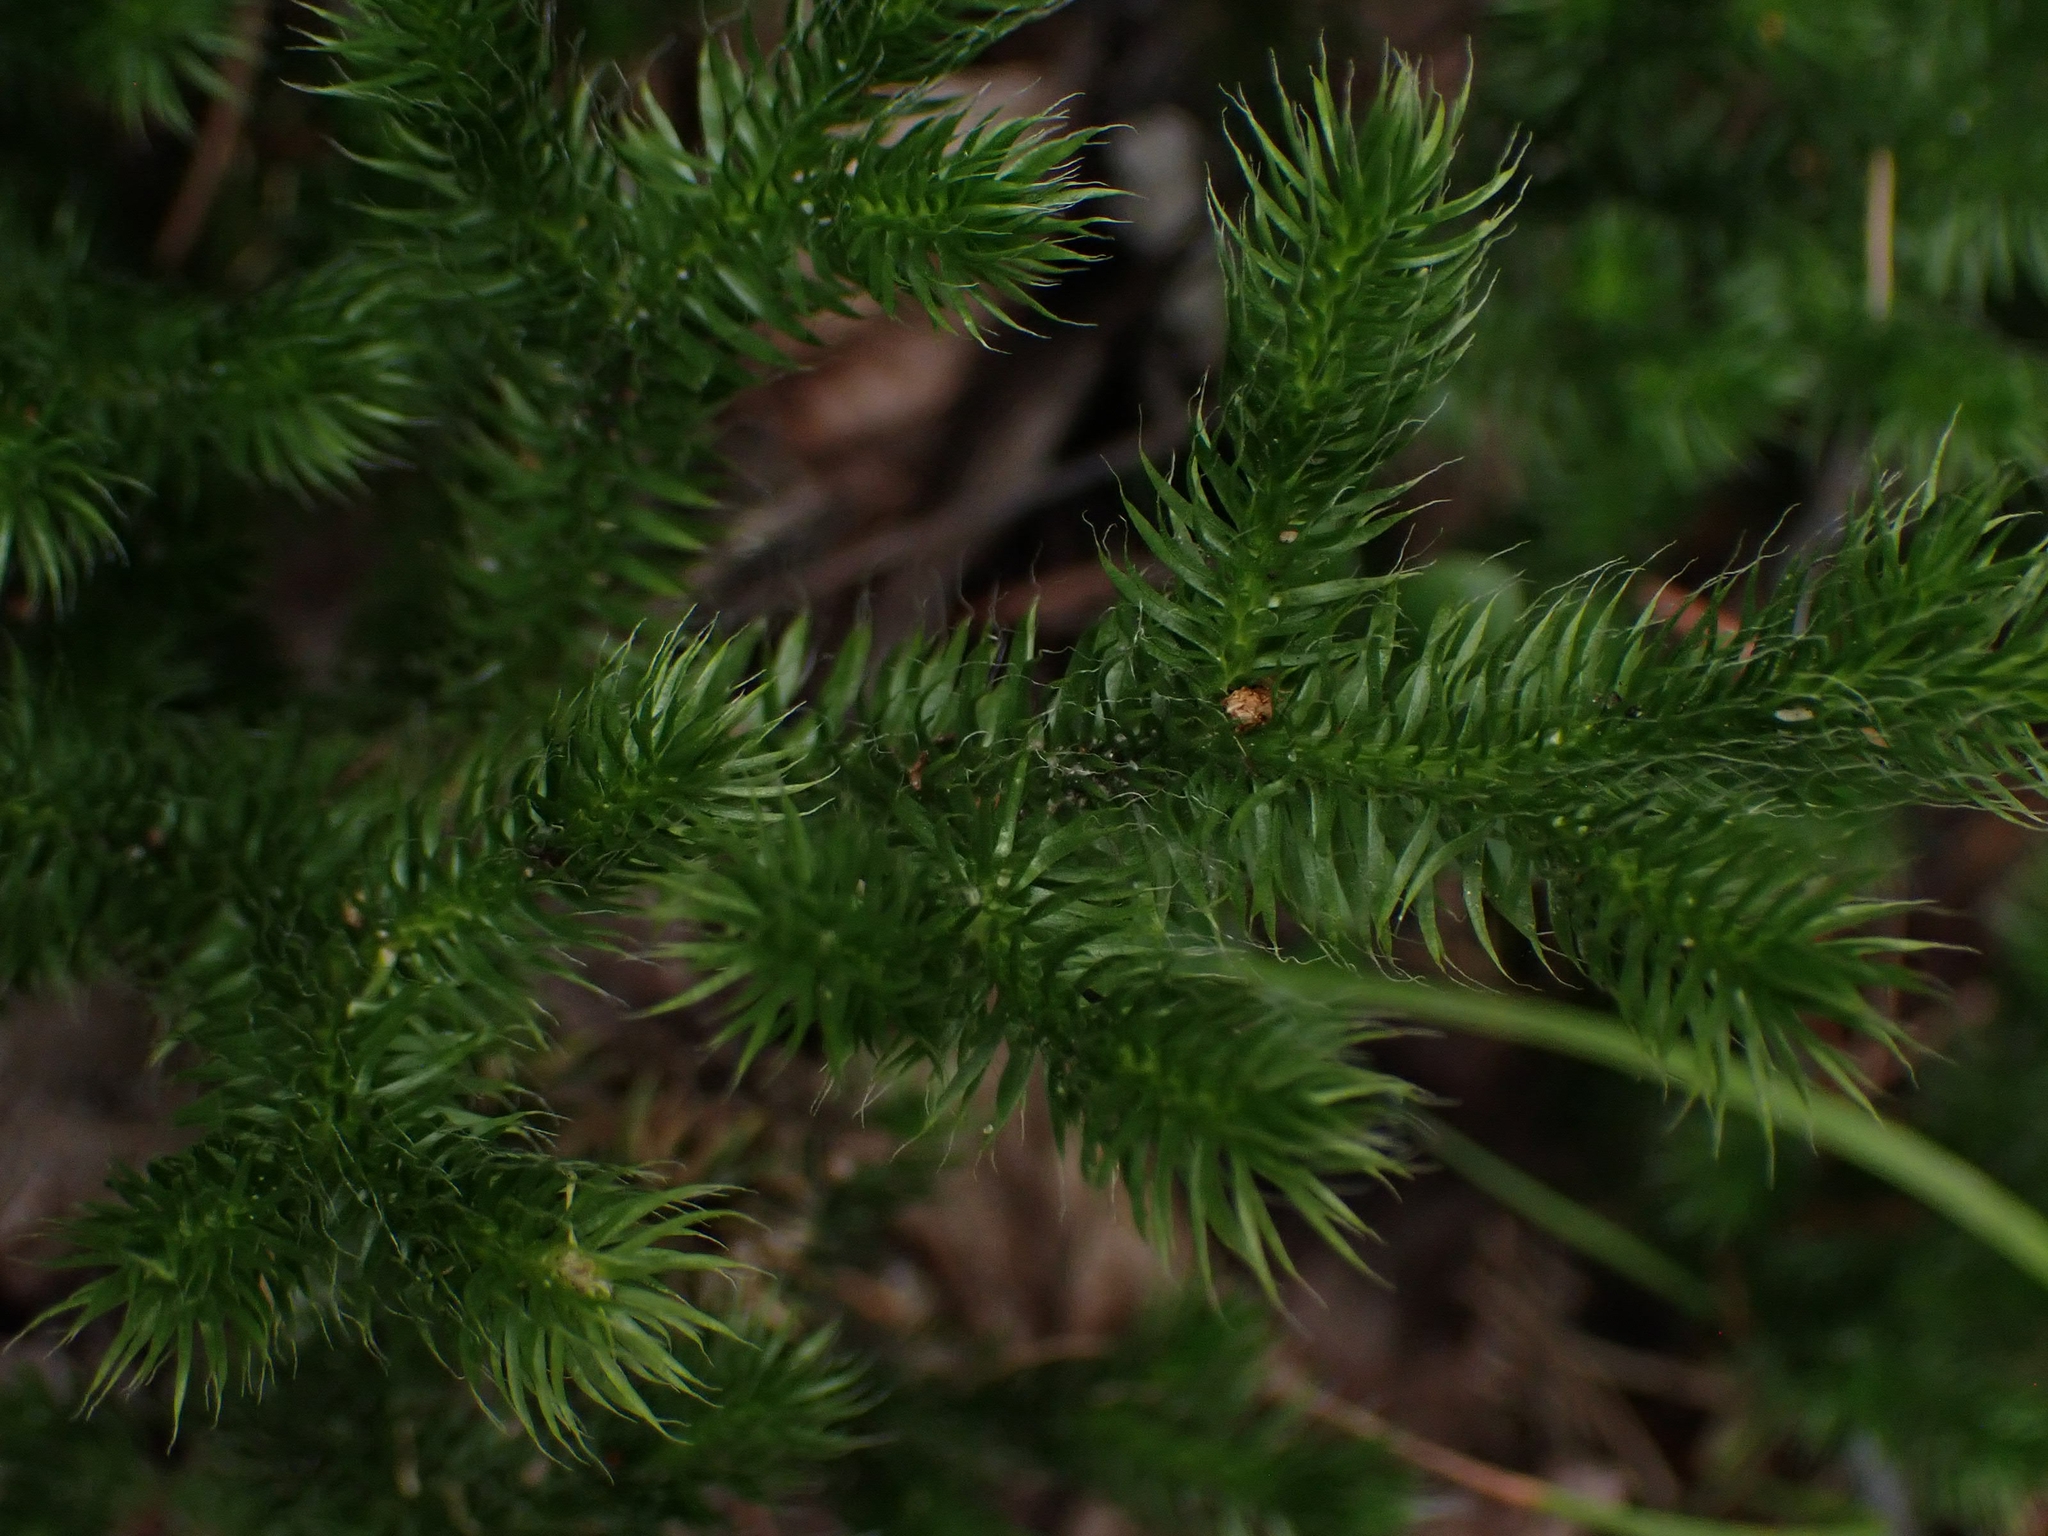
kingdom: Plantae
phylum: Tracheophyta
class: Lycopodiopsida
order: Lycopodiales
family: Lycopodiaceae
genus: Lycopodium
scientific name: Lycopodium clavatum
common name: Stag's-horn clubmoss
